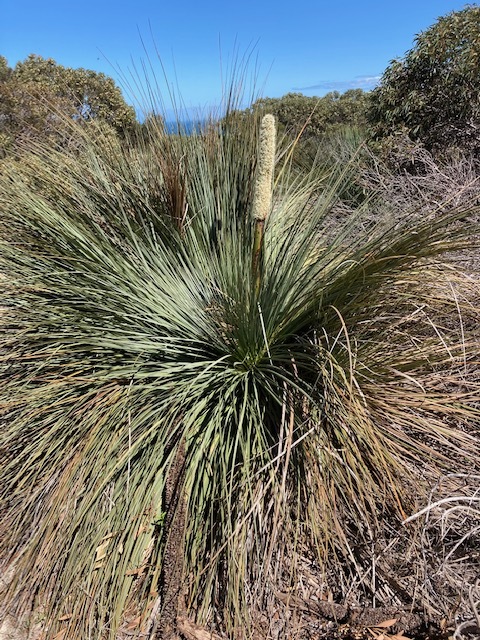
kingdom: Plantae
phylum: Tracheophyta
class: Liliopsida
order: Asparagales
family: Asphodelaceae
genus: Xanthorrhoea
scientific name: Xanthorrhoea semiplana
